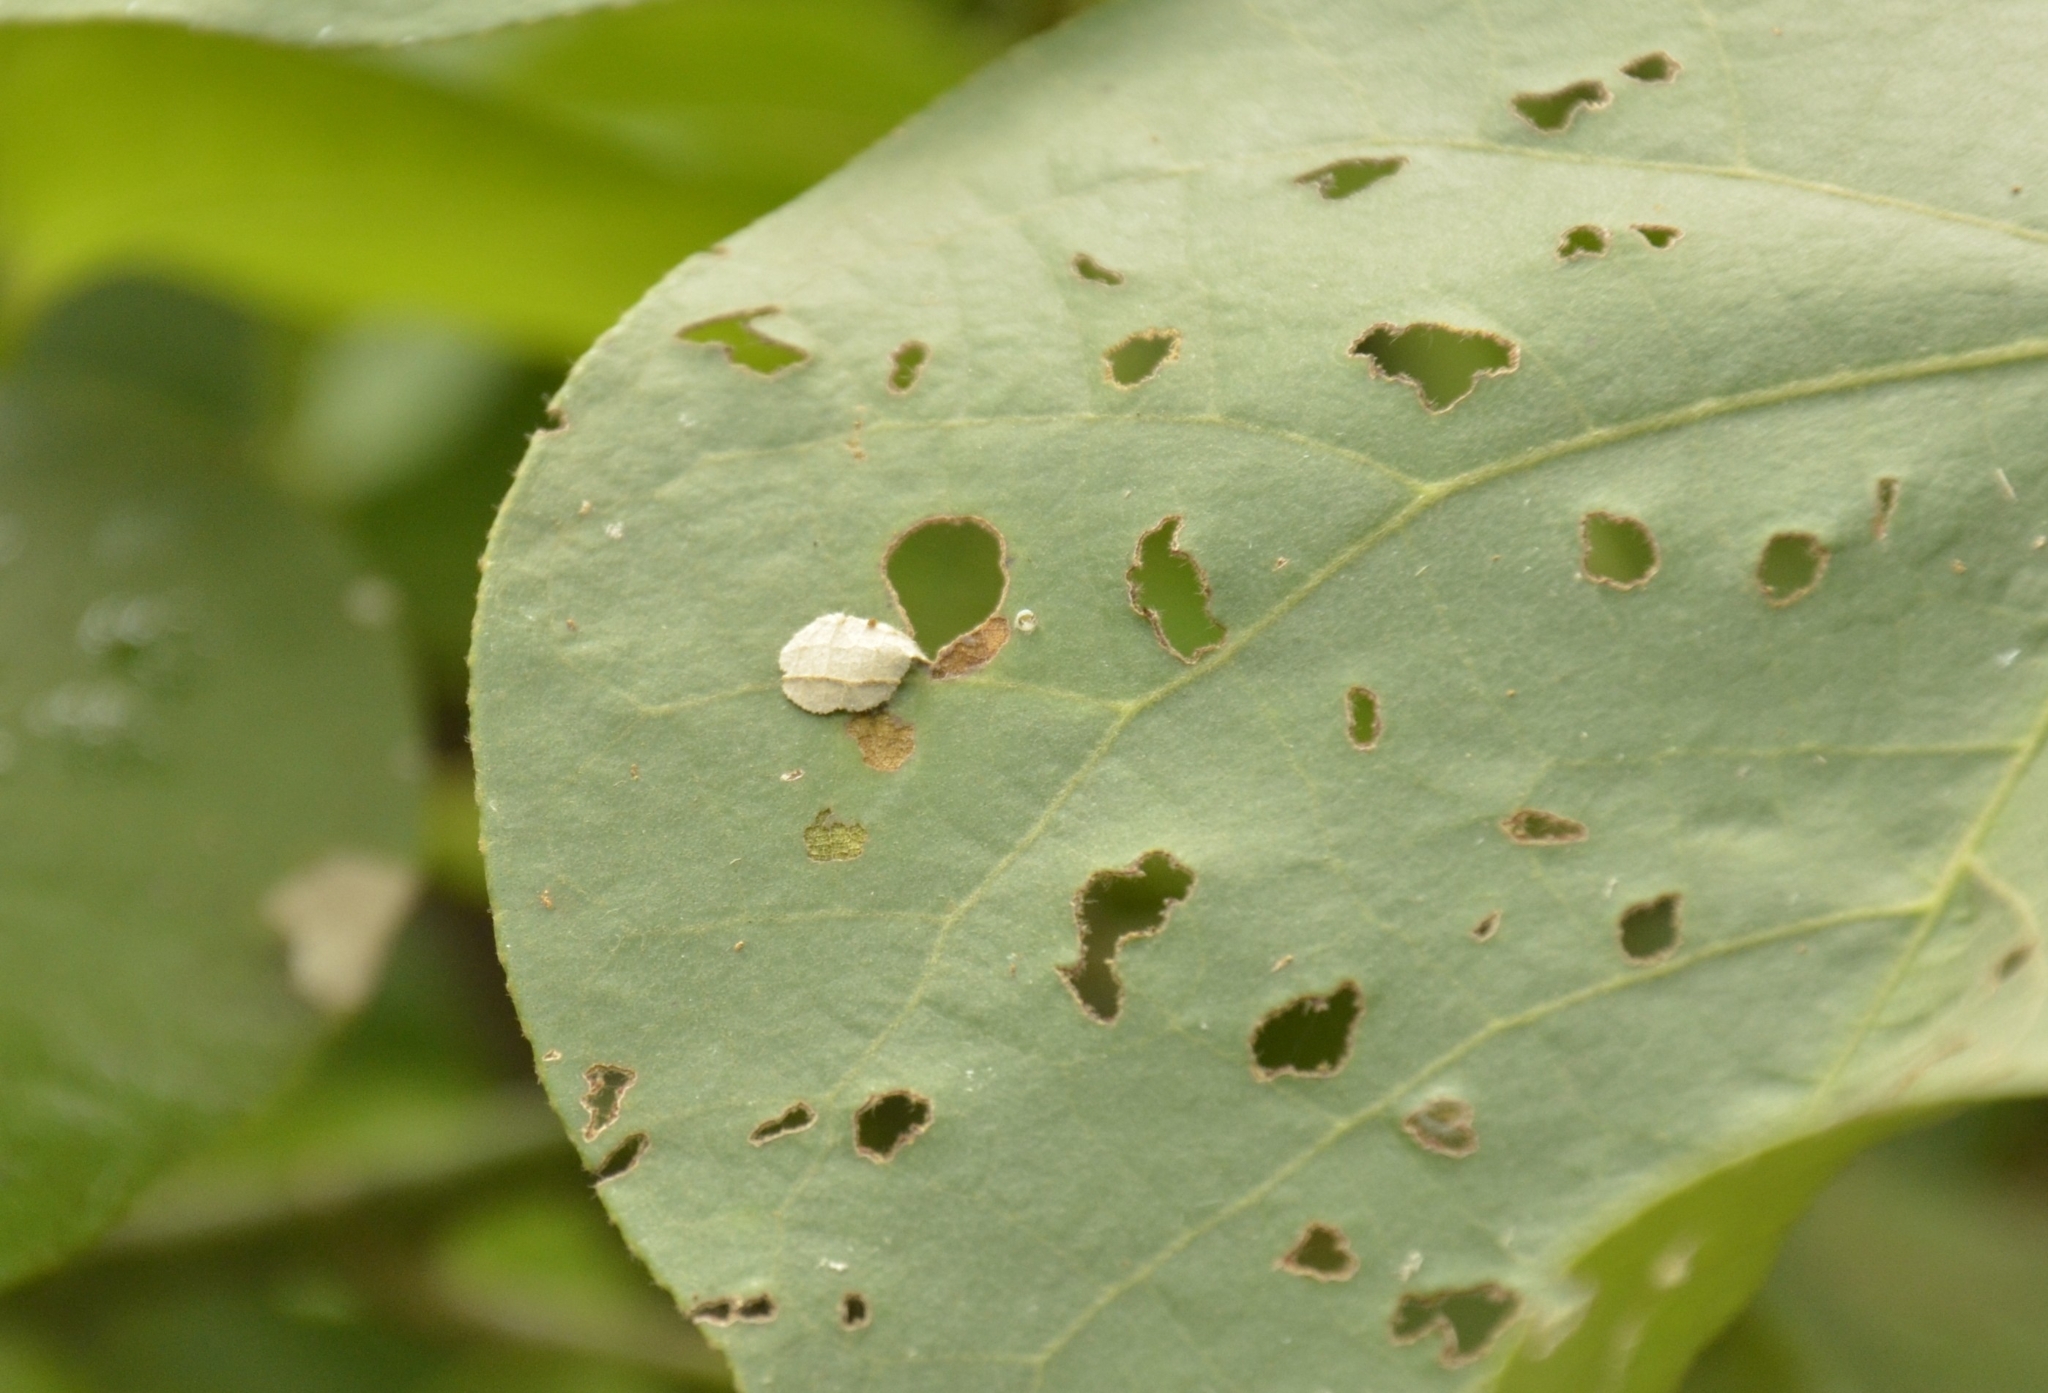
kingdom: Animalia
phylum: Arthropoda
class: Insecta
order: Lepidoptera
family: Hesperiidae
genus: Coladenia
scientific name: Coladenia
